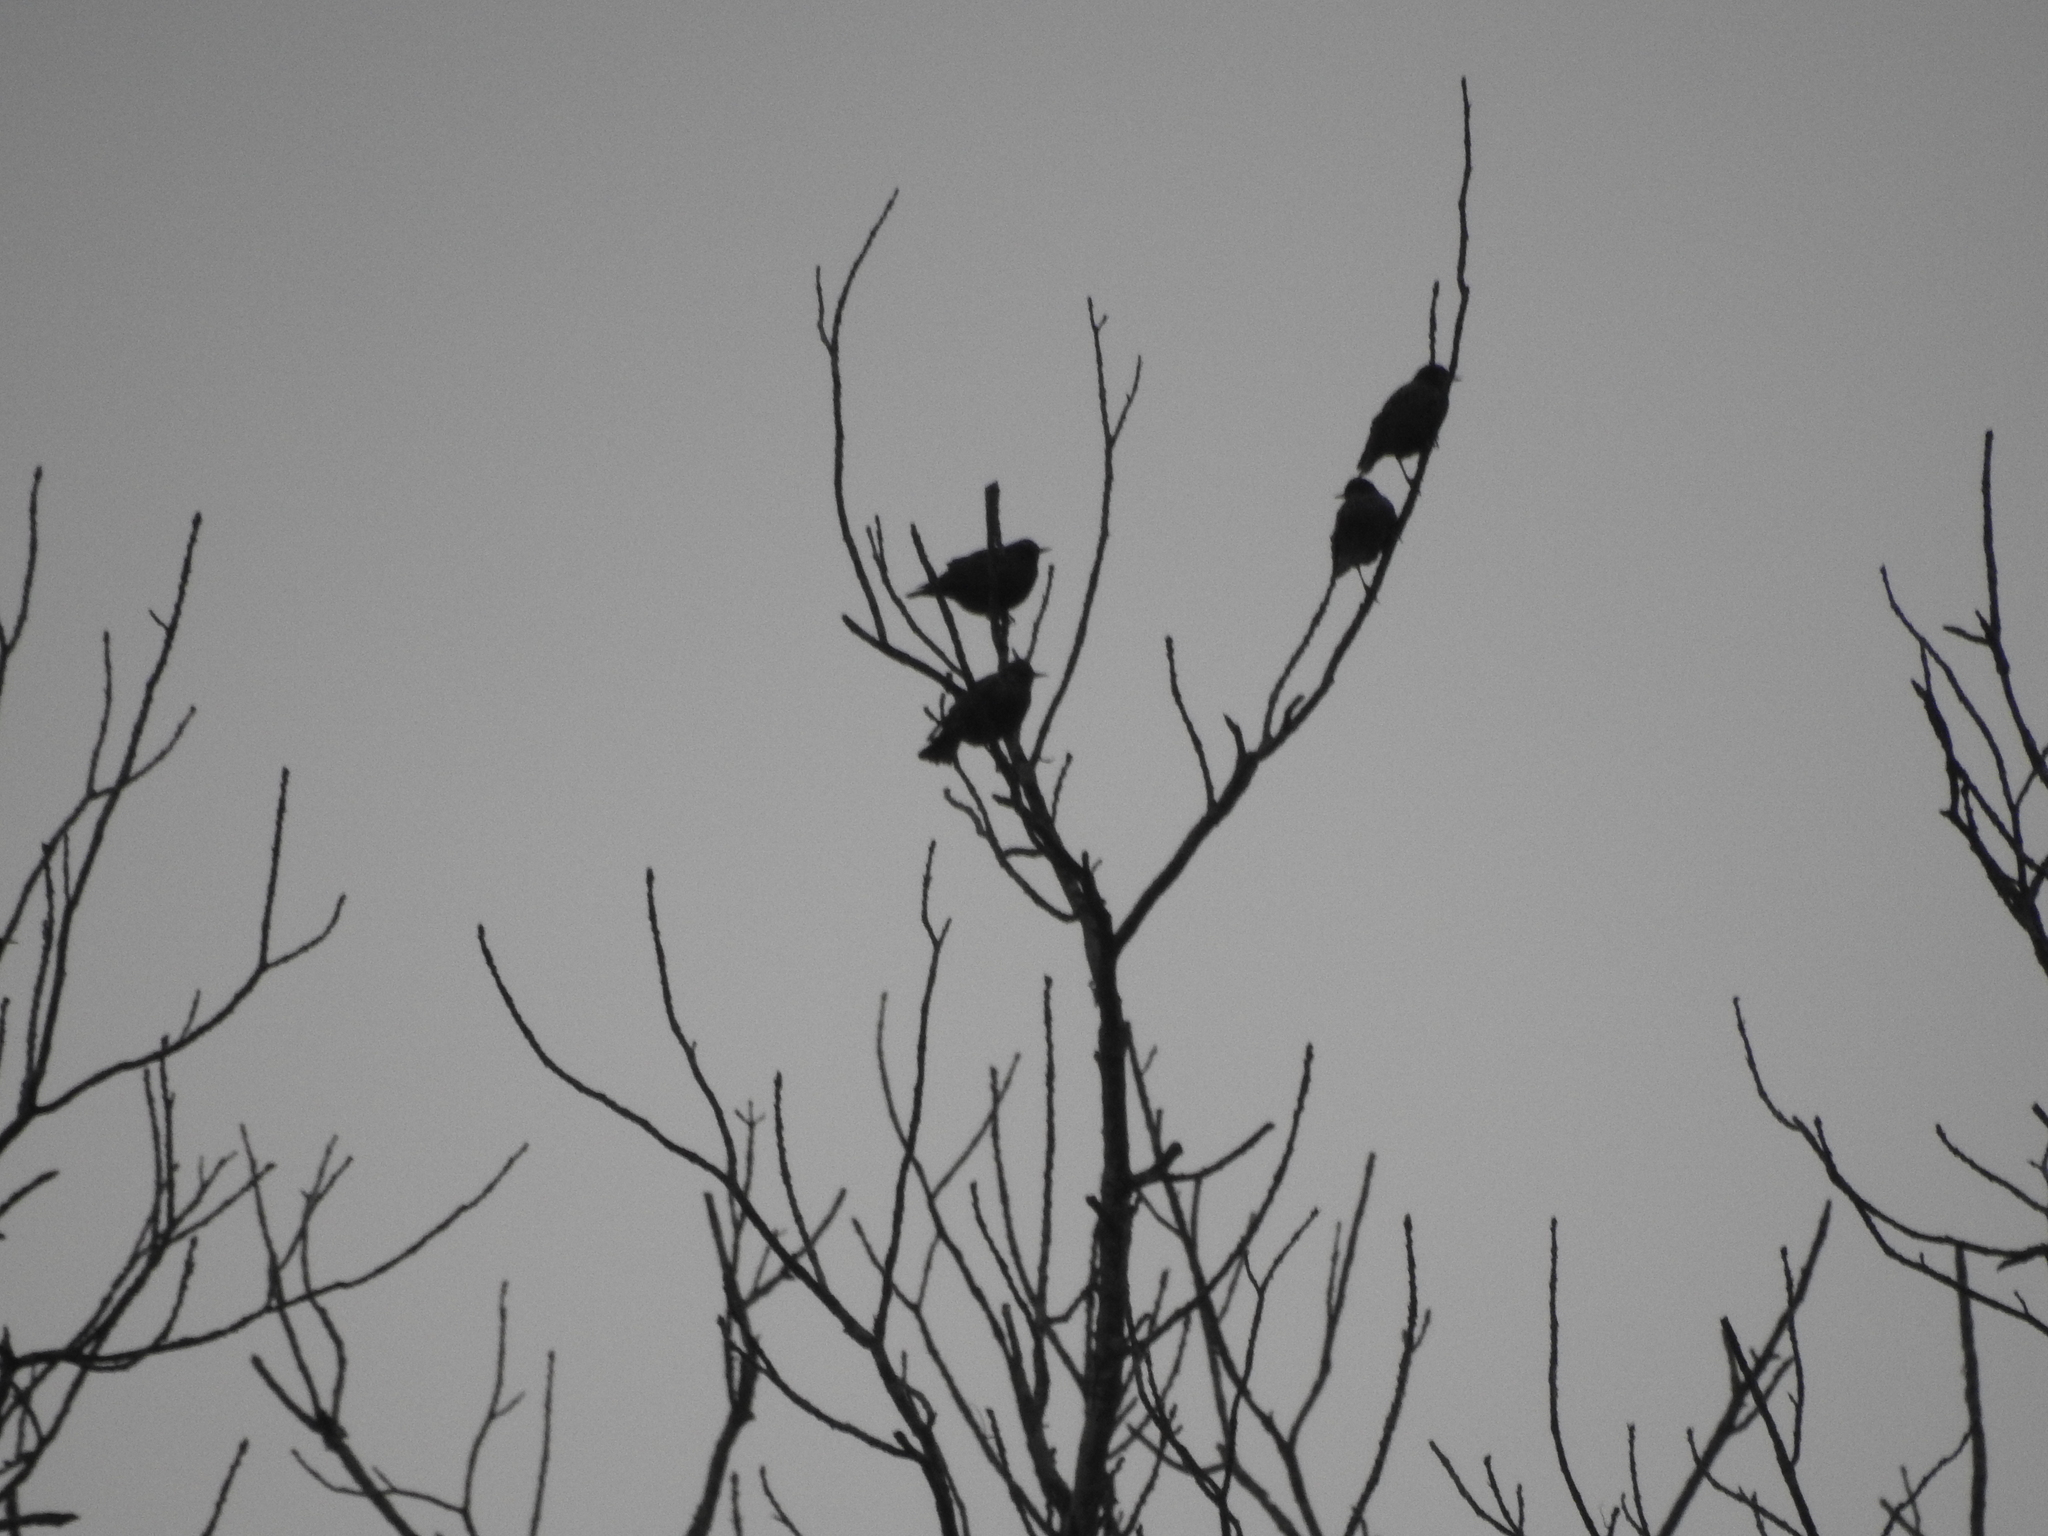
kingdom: Animalia
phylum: Chordata
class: Aves
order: Passeriformes
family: Sturnidae
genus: Sturnus
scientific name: Sturnus vulgaris
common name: Common starling
